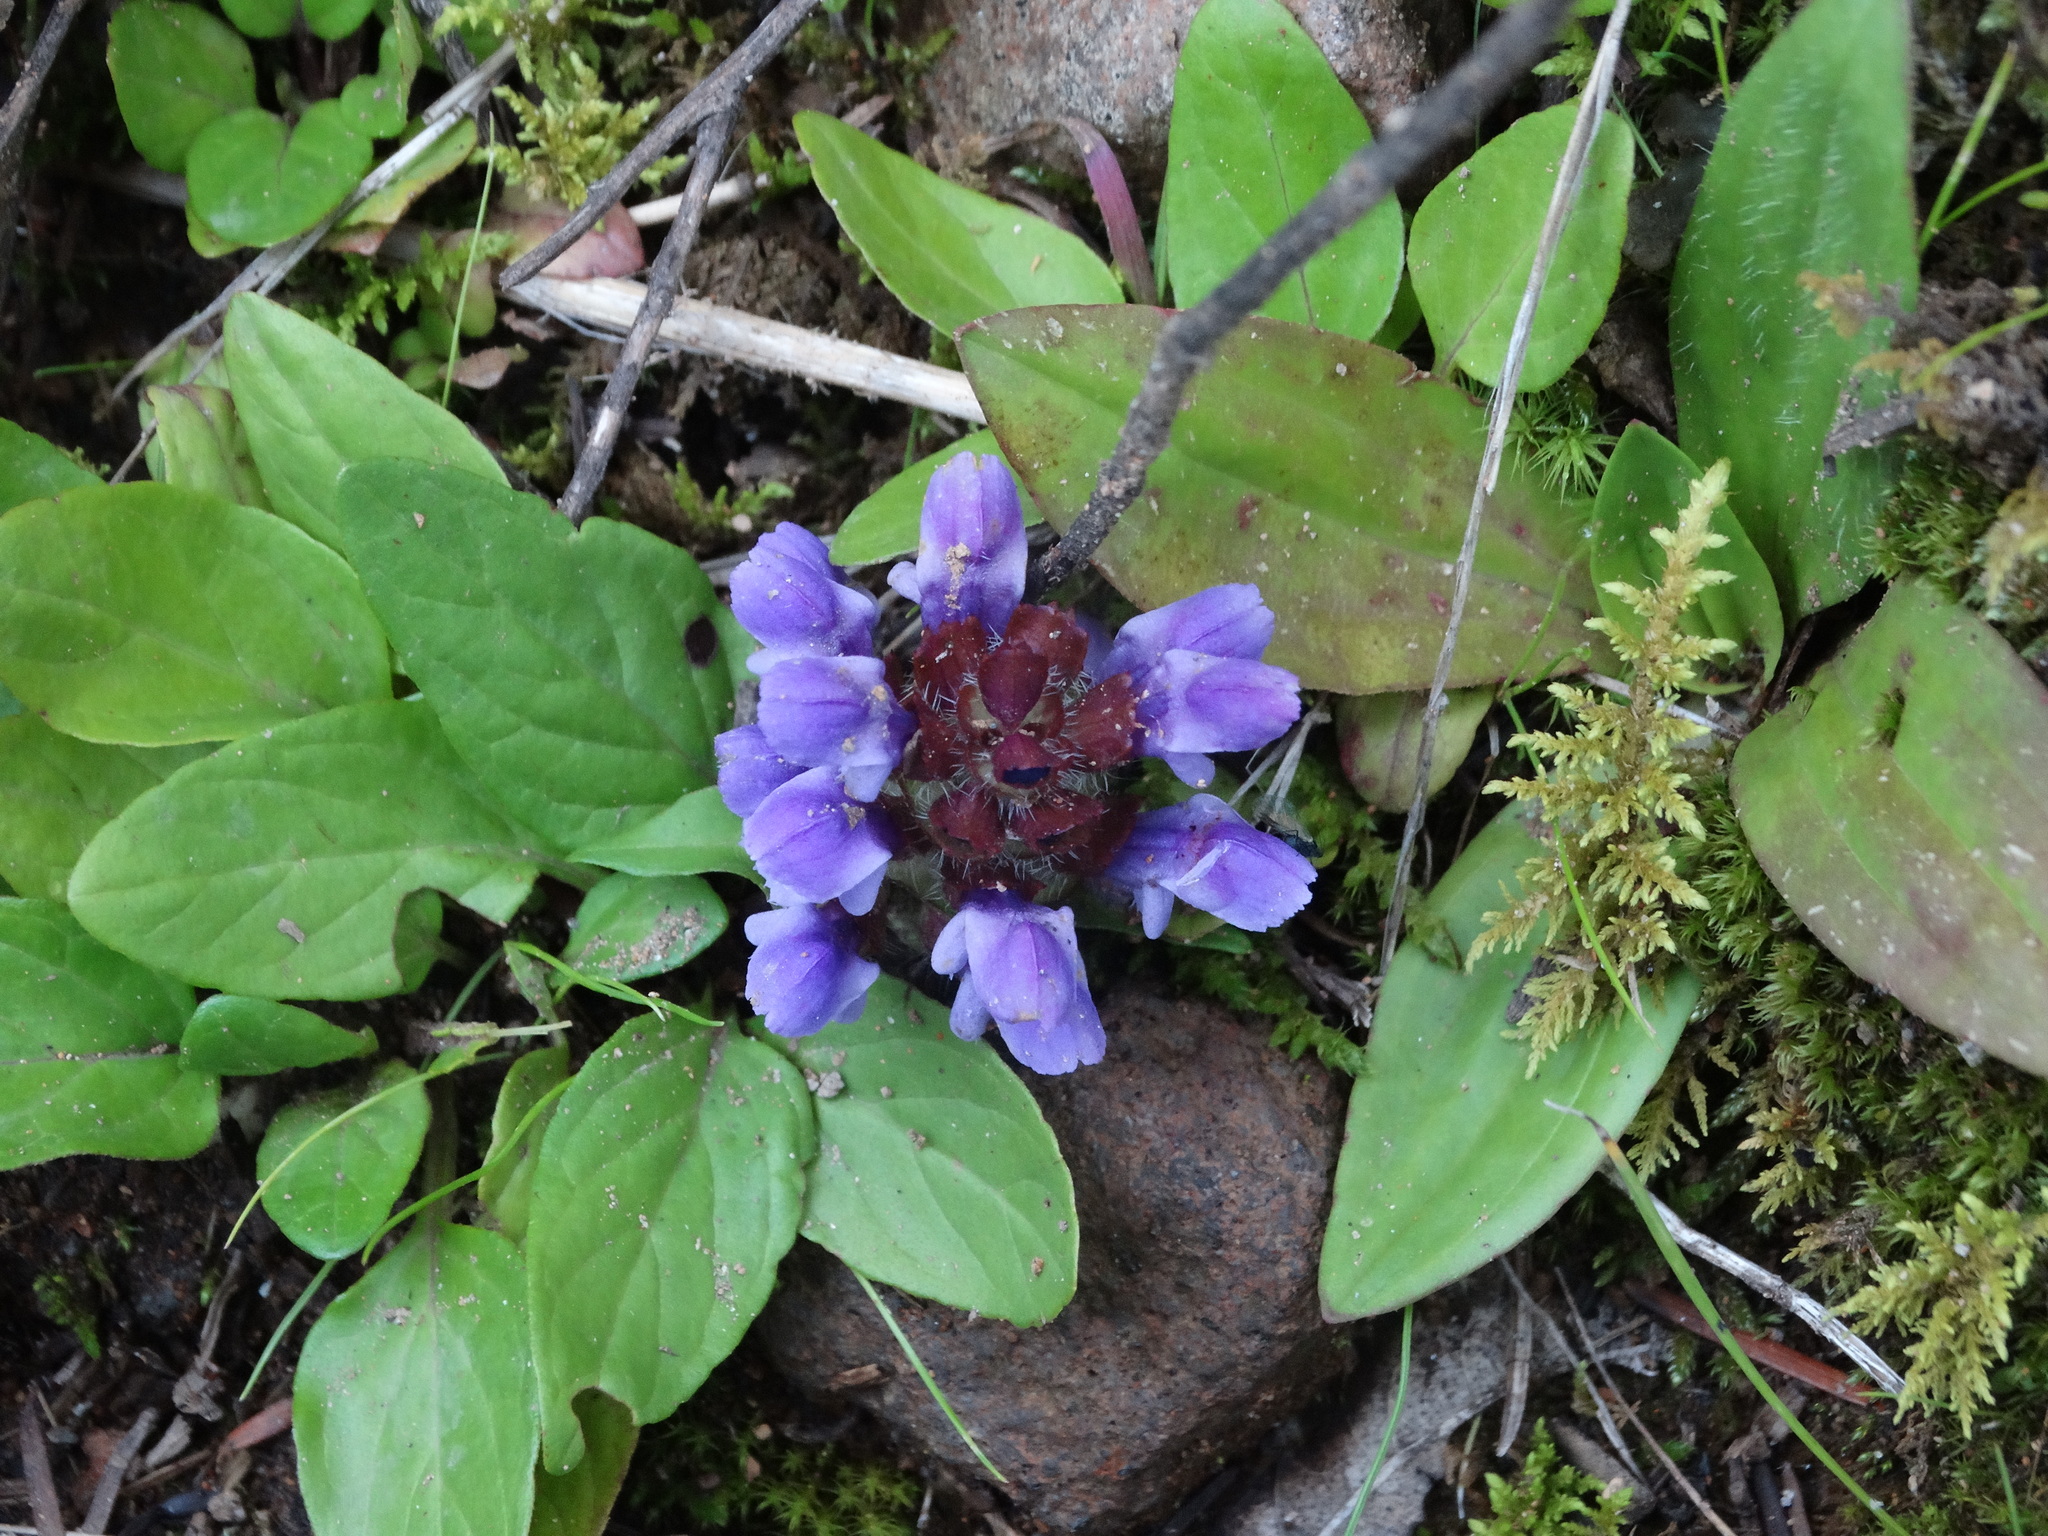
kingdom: Plantae
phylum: Tracheophyta
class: Magnoliopsida
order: Lamiales
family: Lamiaceae
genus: Prunella
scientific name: Prunella vulgaris
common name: Heal-all
